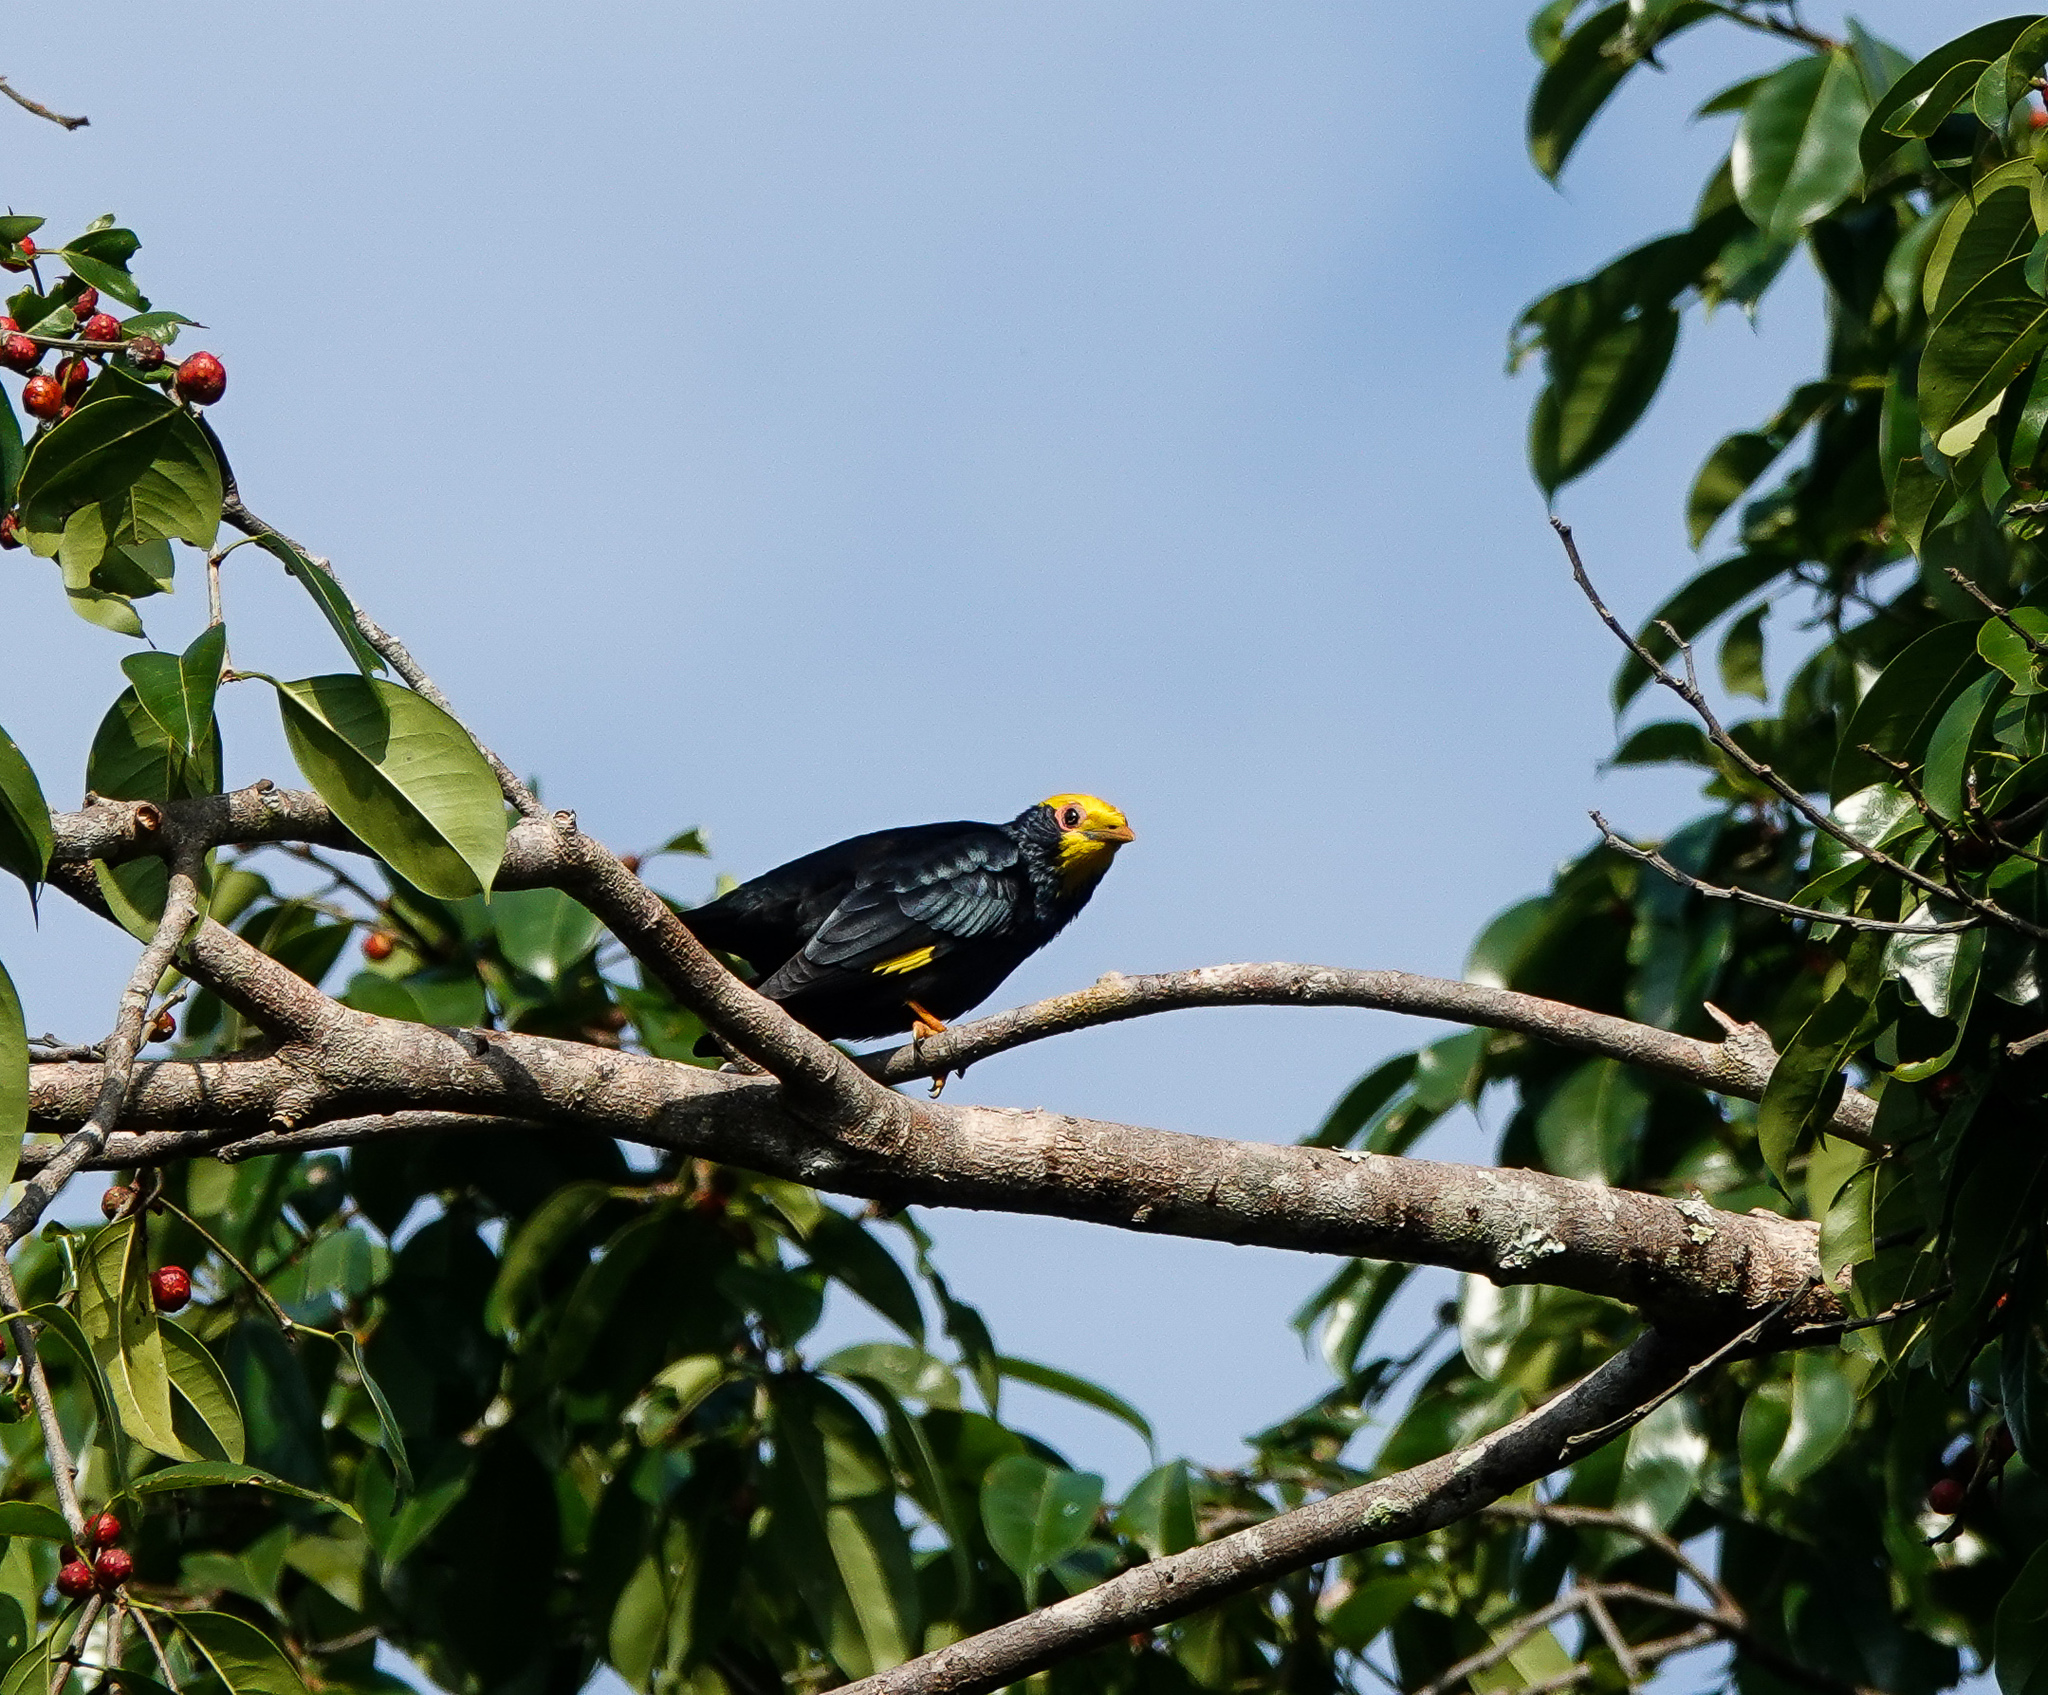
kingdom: Animalia
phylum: Chordata
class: Aves
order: Passeriformes
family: Sturnidae
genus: Ampeliceps
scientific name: Ampeliceps coronatus
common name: Golden-crested myna
